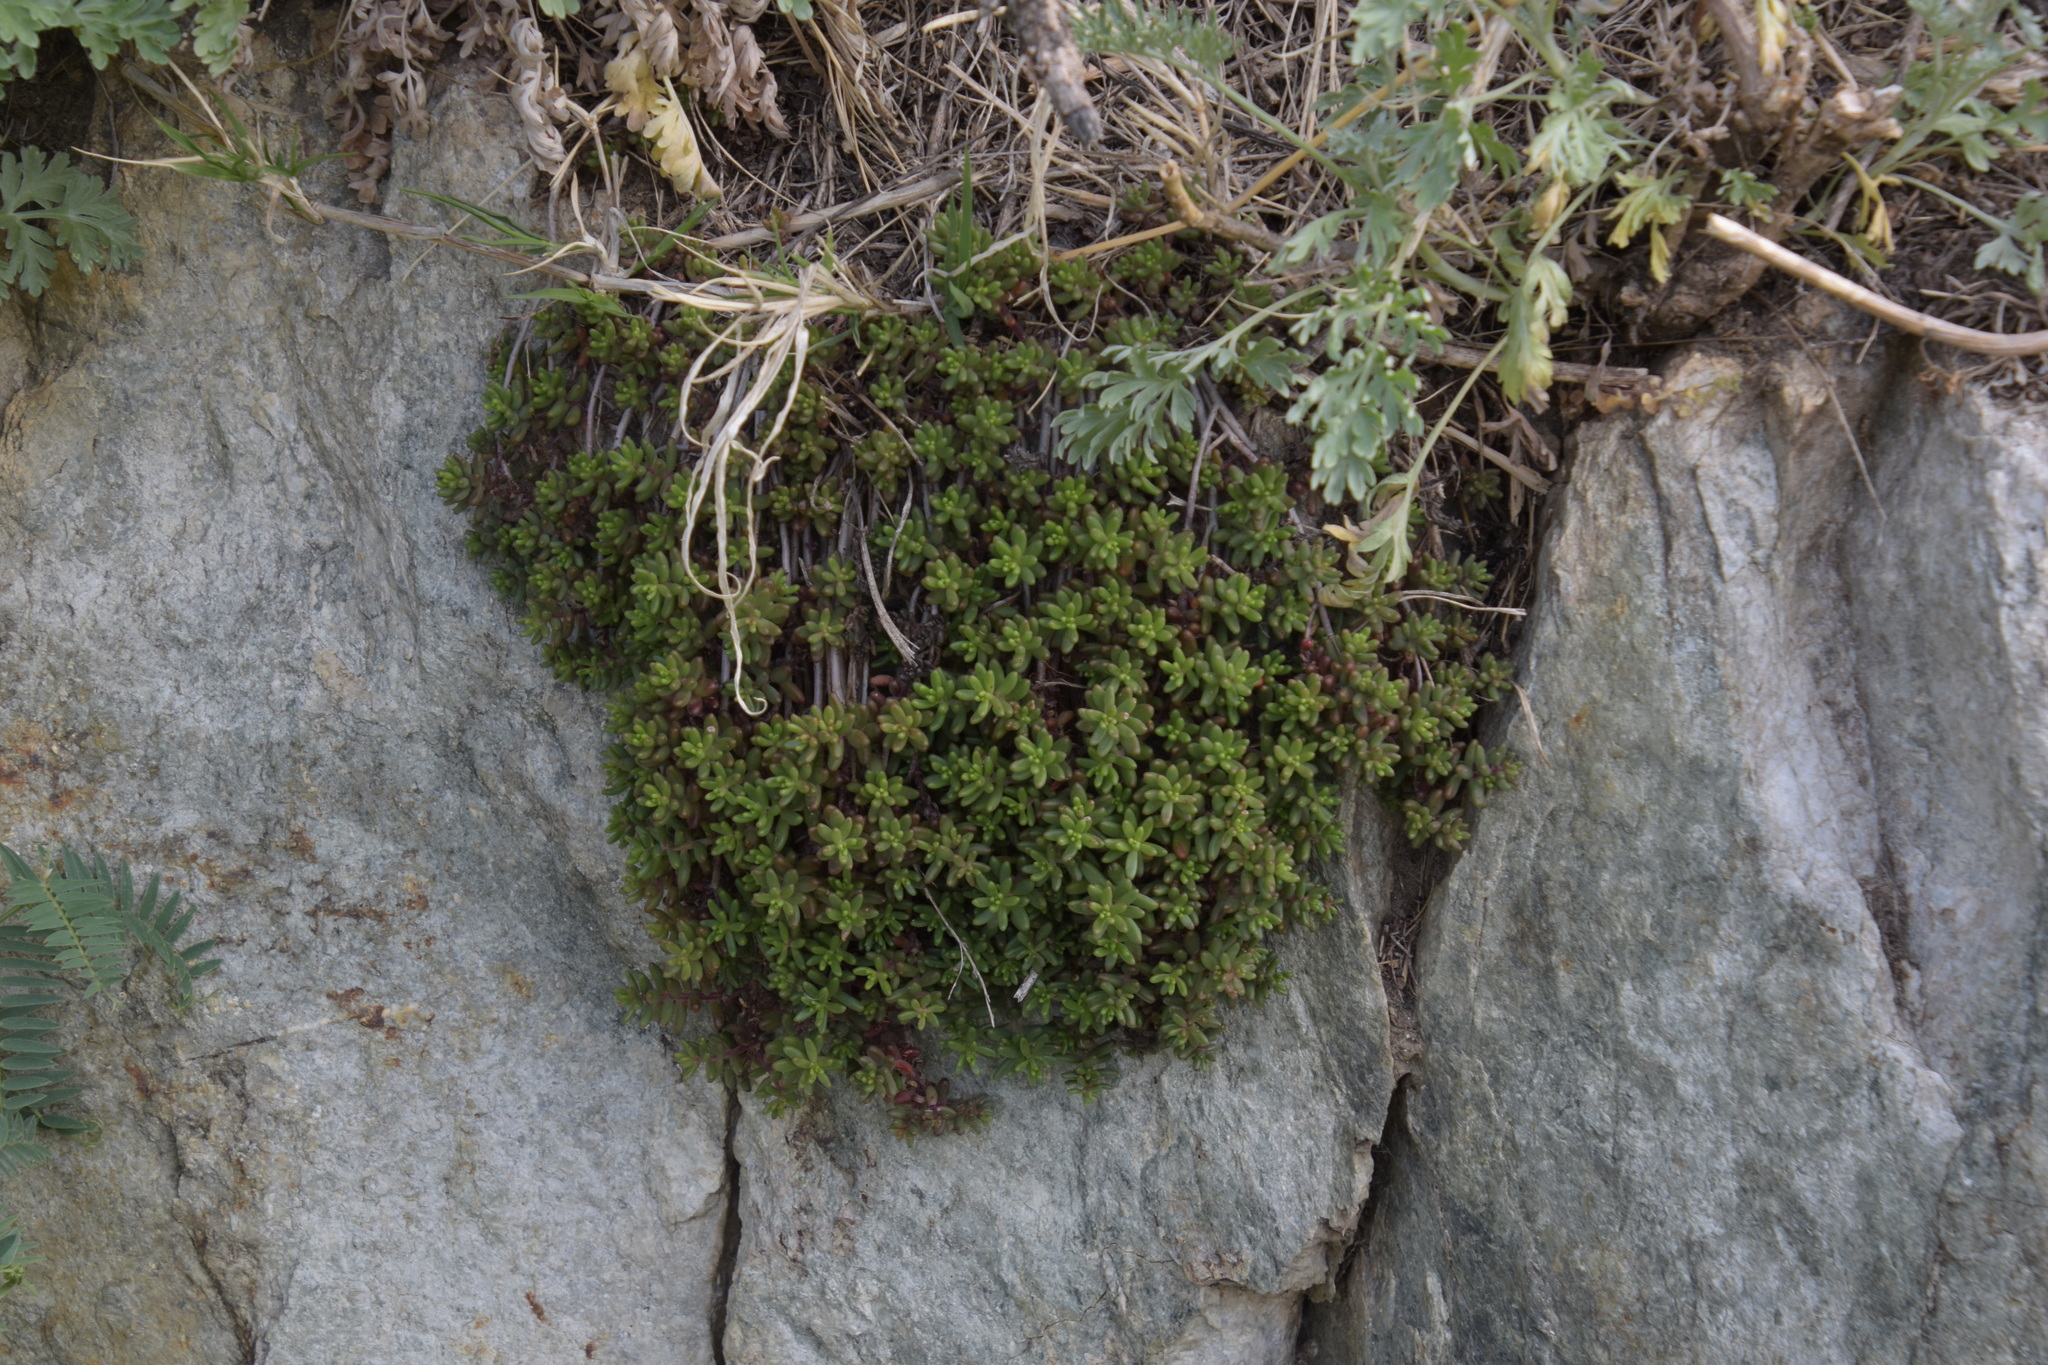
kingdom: Plantae
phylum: Tracheophyta
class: Magnoliopsida
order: Saxifragales
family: Crassulaceae
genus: Sedum
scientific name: Sedum album
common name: White stonecrop
